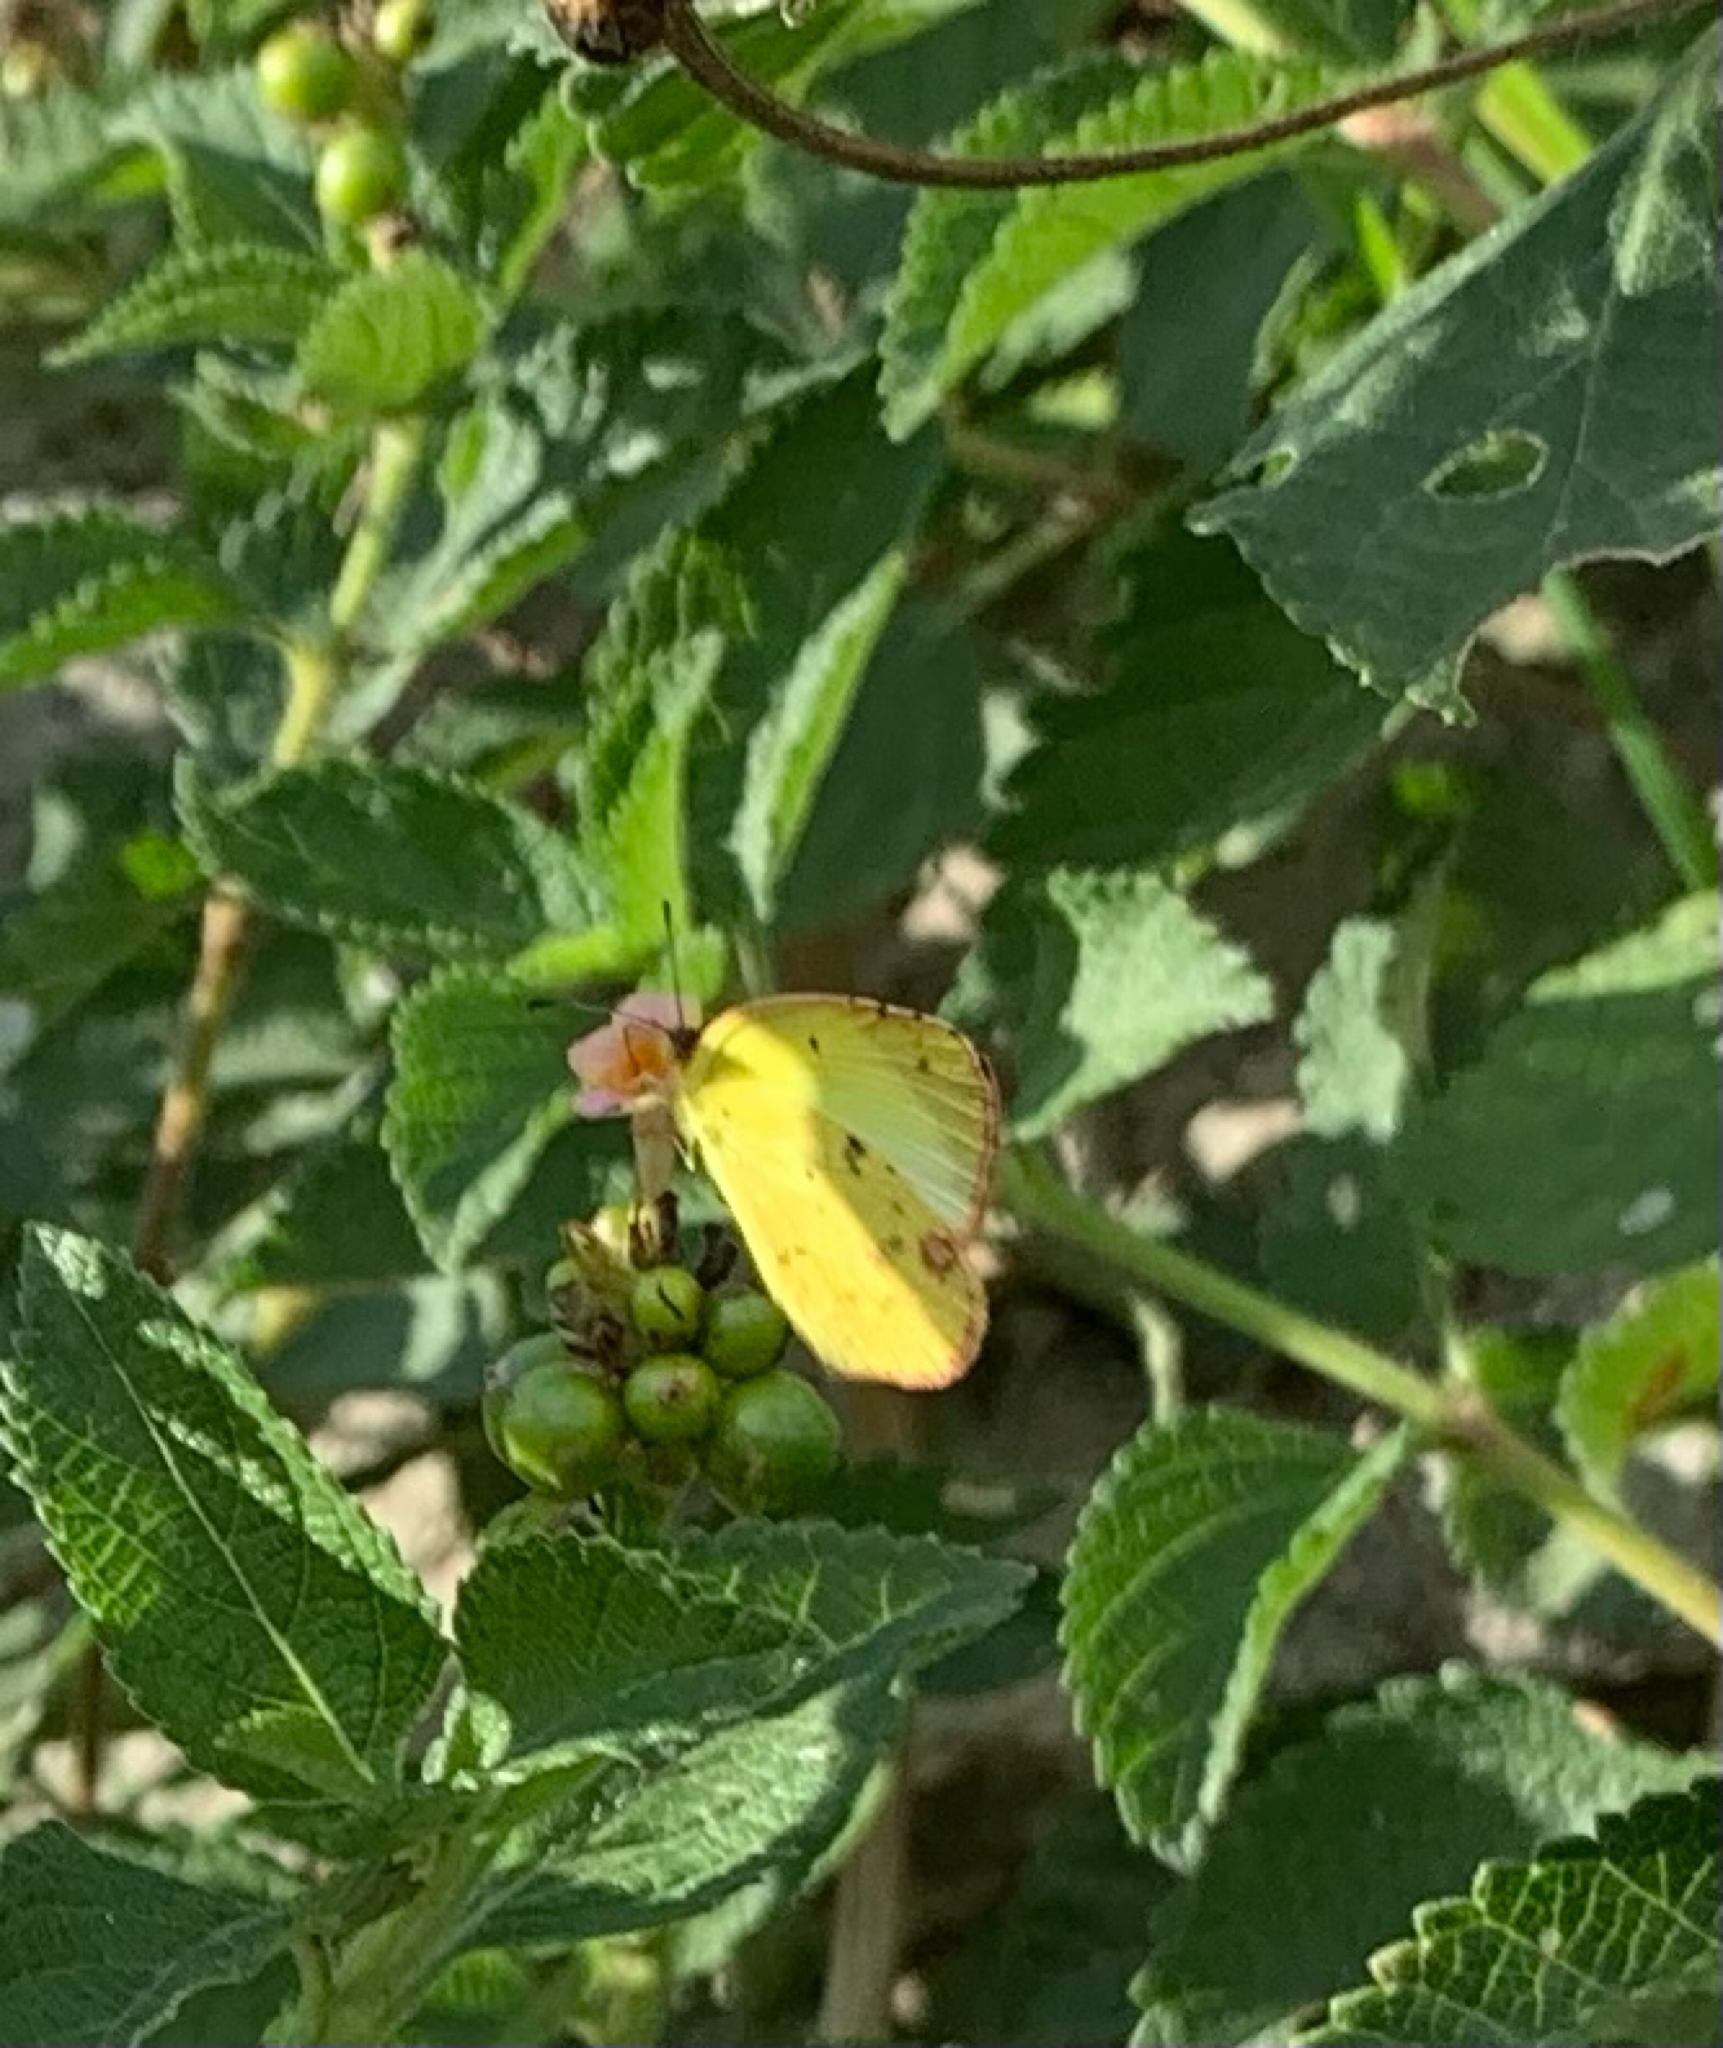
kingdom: Animalia
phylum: Arthropoda
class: Insecta
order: Lepidoptera
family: Pieridae
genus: Pyrisitia
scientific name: Pyrisitia lisa
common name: Little yellow
